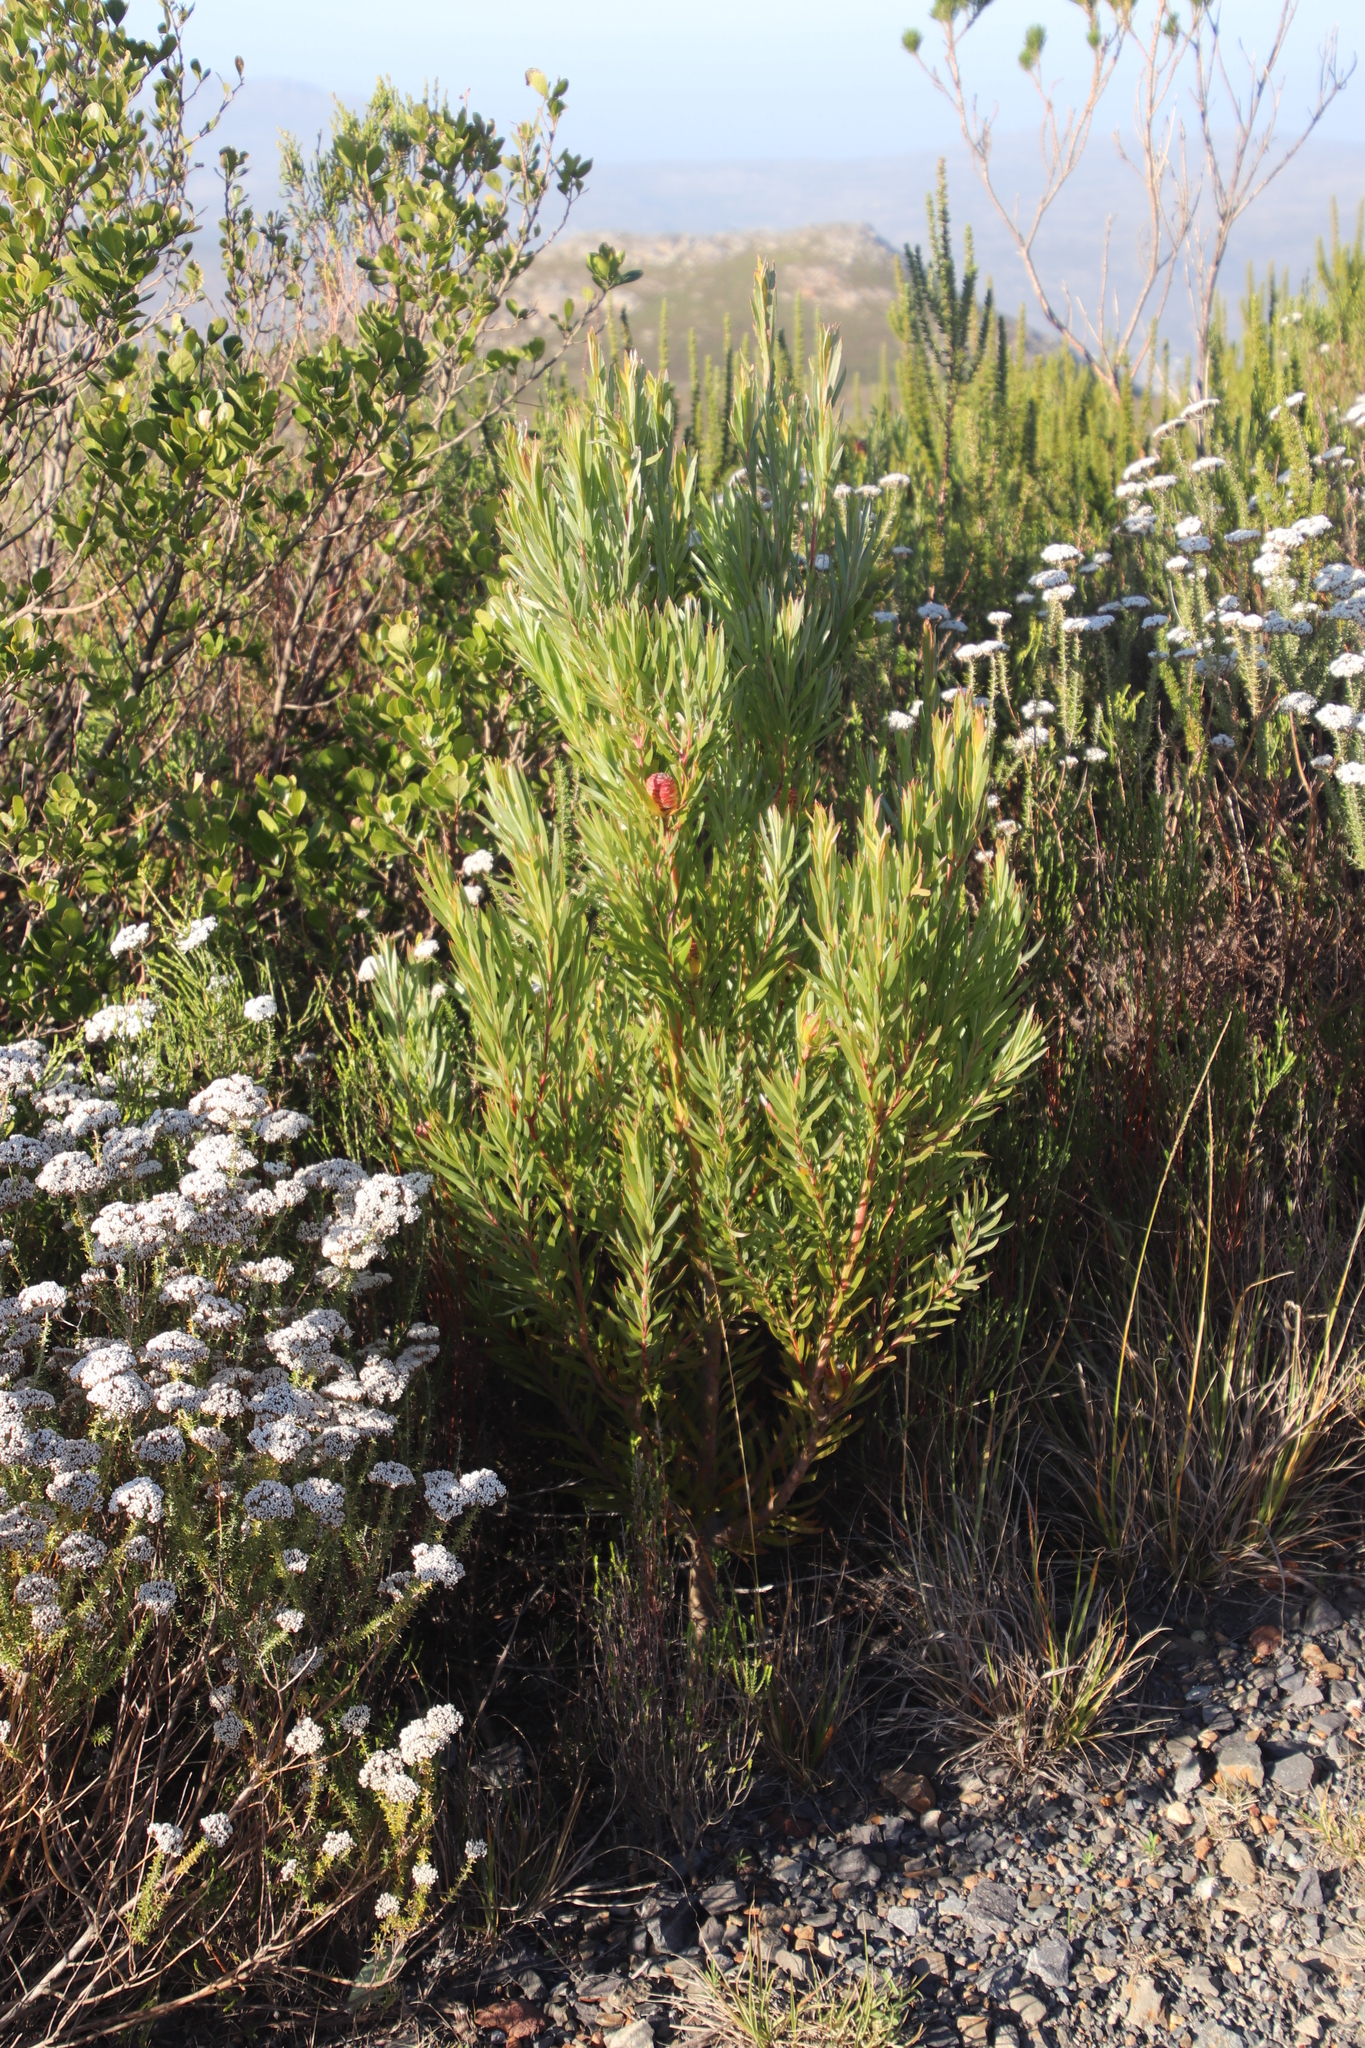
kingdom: Plantae
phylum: Tracheophyta
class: Magnoliopsida
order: Proteales
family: Proteaceae
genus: Leucadendron
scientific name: Leucadendron xanthoconus
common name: Sickle-leaf conebush
